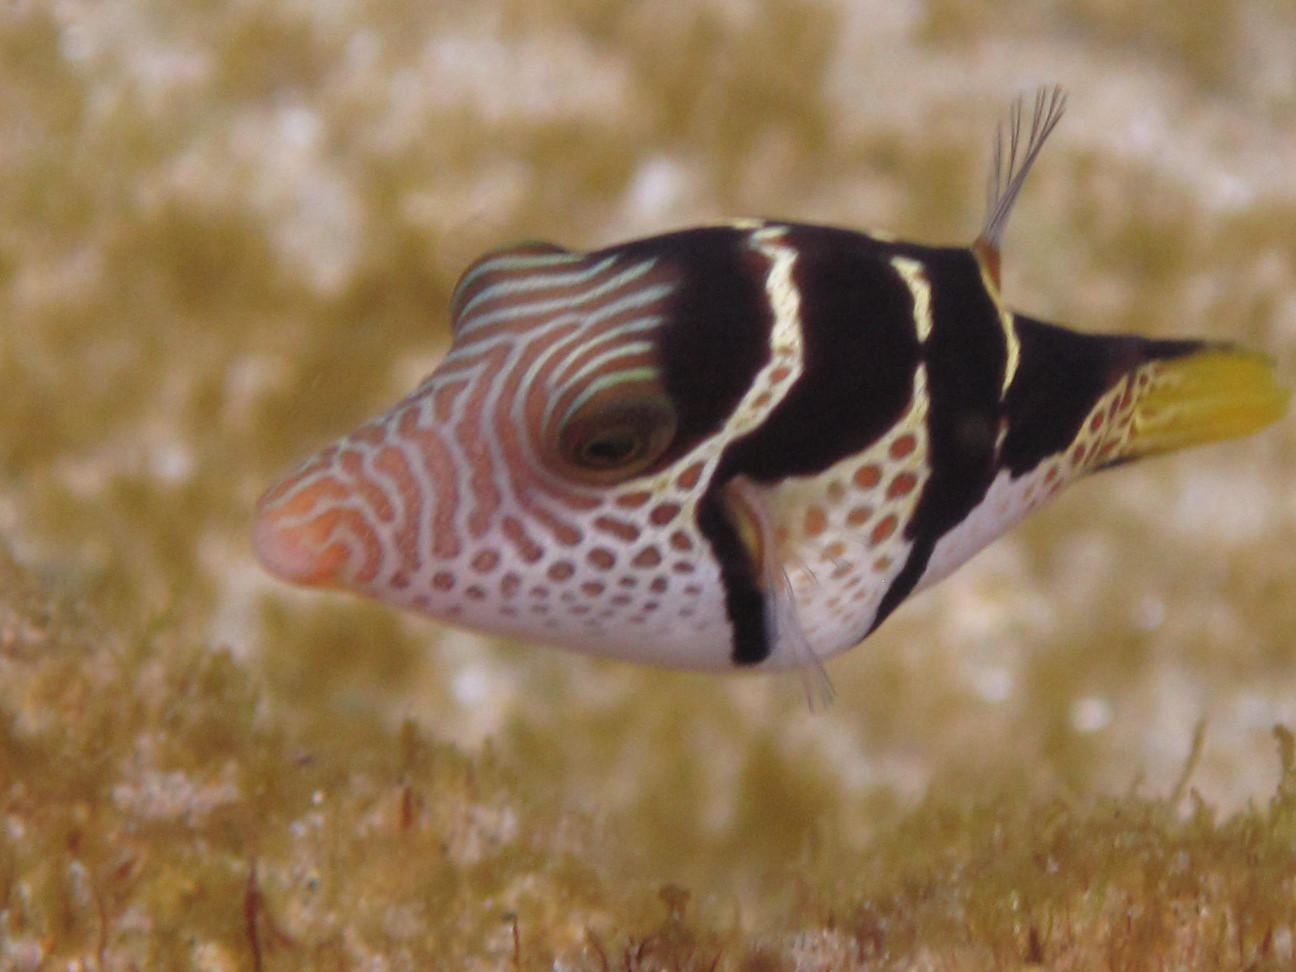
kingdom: Animalia
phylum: Chordata
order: Tetraodontiformes
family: Tetraodontidae
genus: Canthigaster
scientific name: Canthigaster valentini
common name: Banded toby
